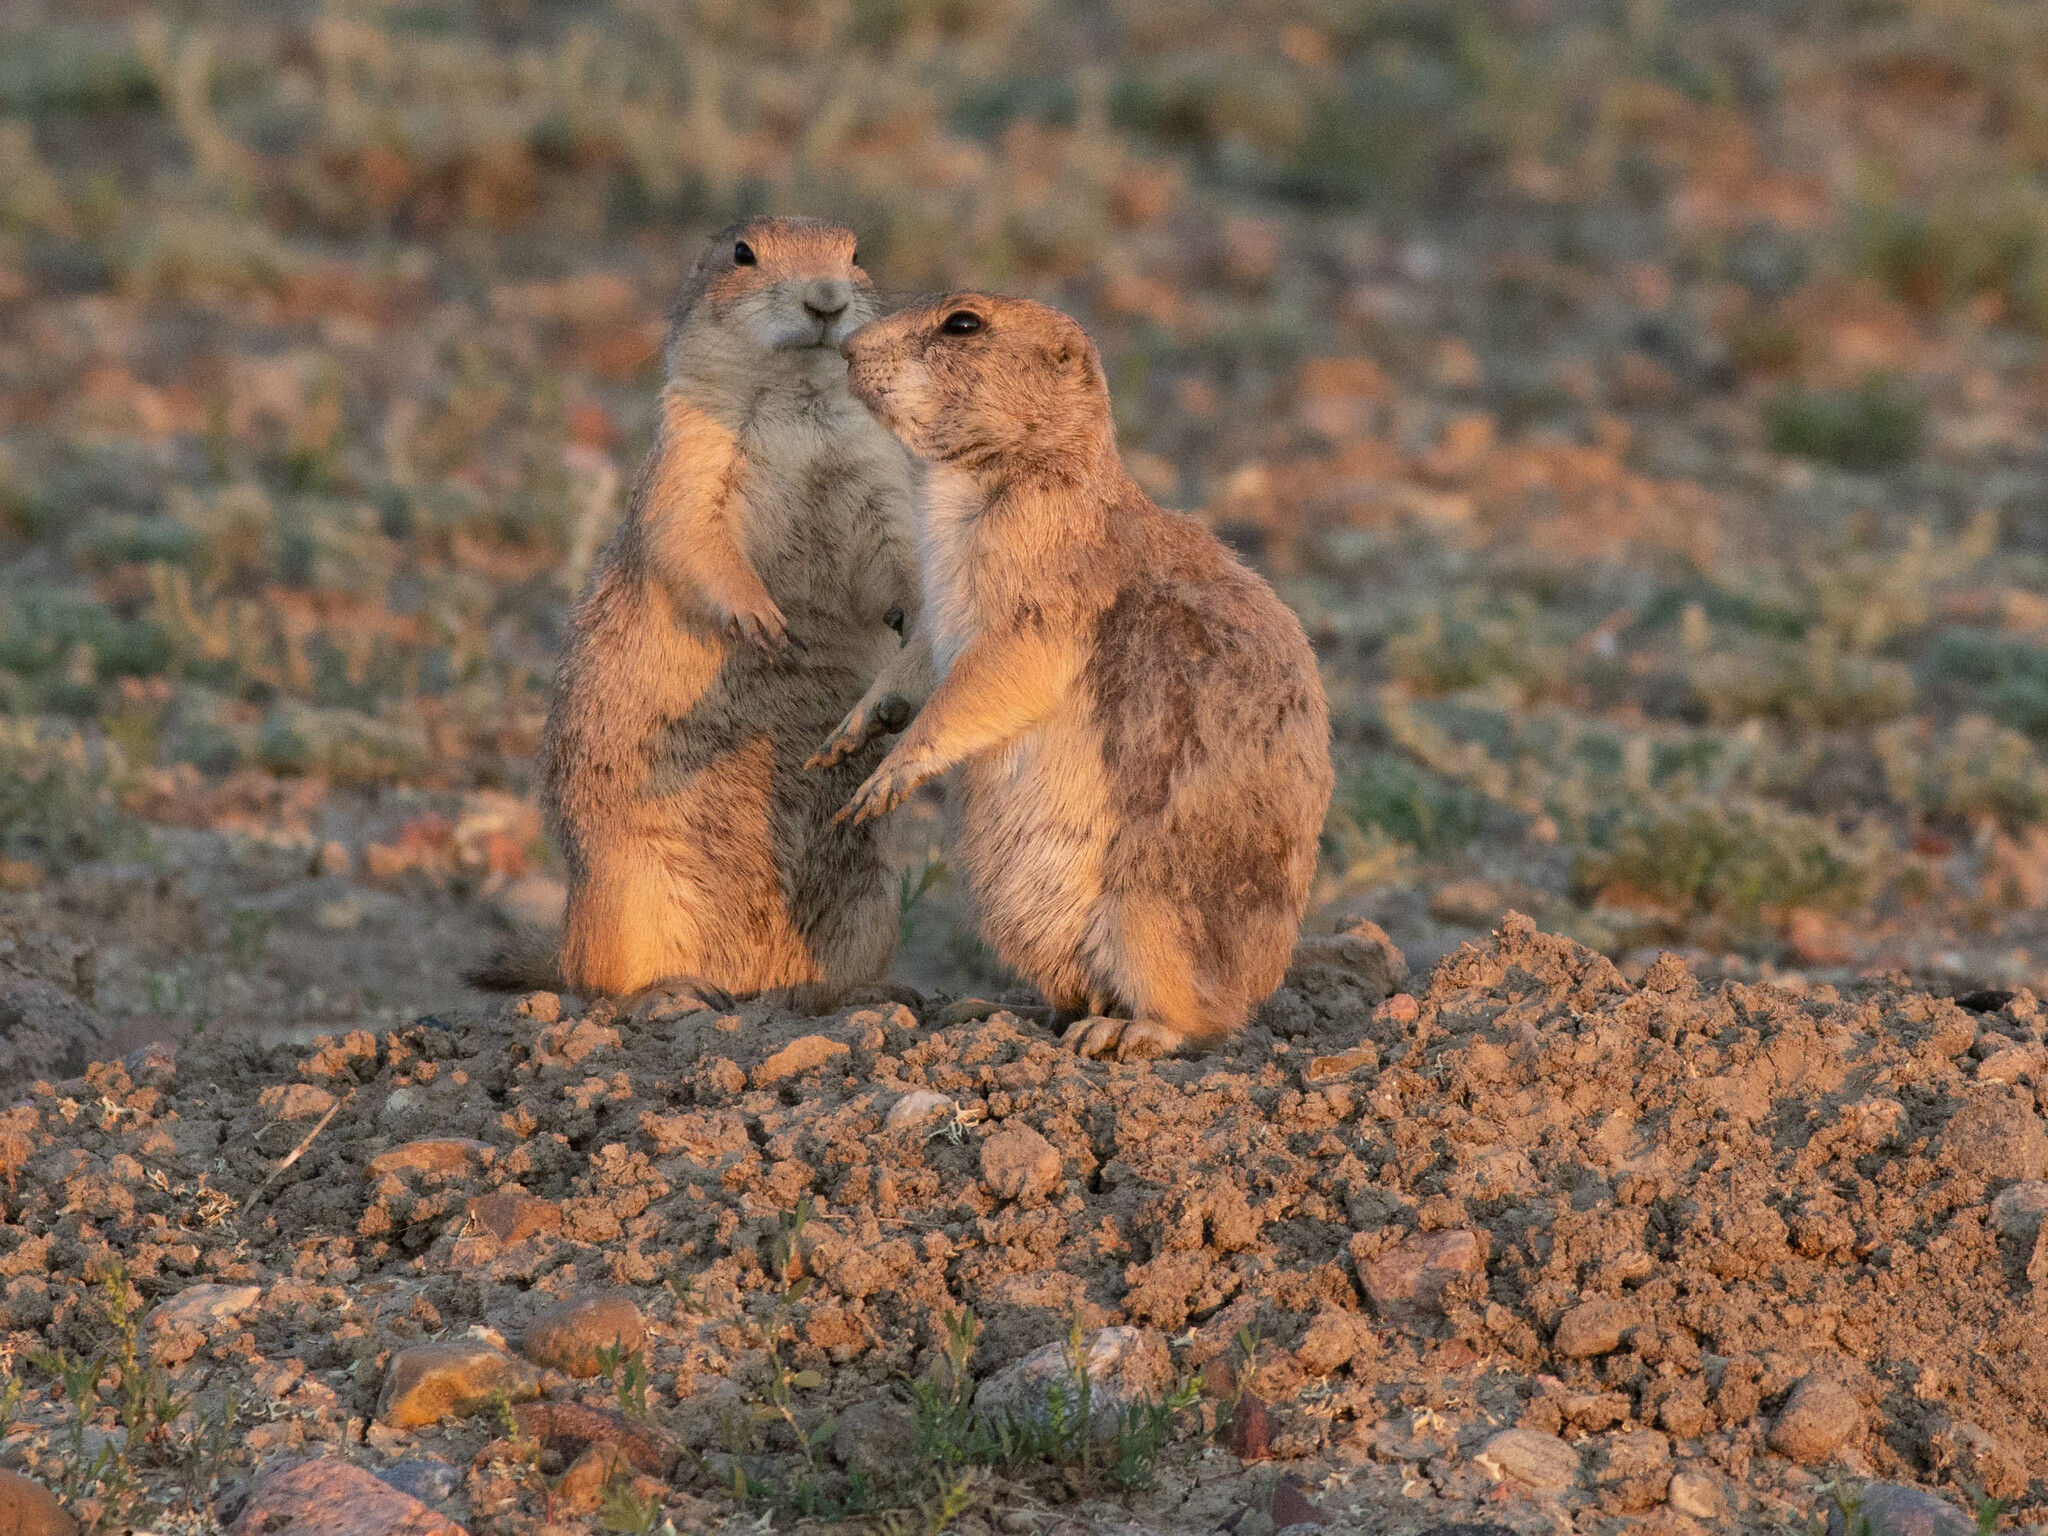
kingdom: Animalia
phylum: Chordata
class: Mammalia
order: Rodentia
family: Sciuridae
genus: Cynomys
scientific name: Cynomys ludovicianus
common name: Black-tailed prairie dog
